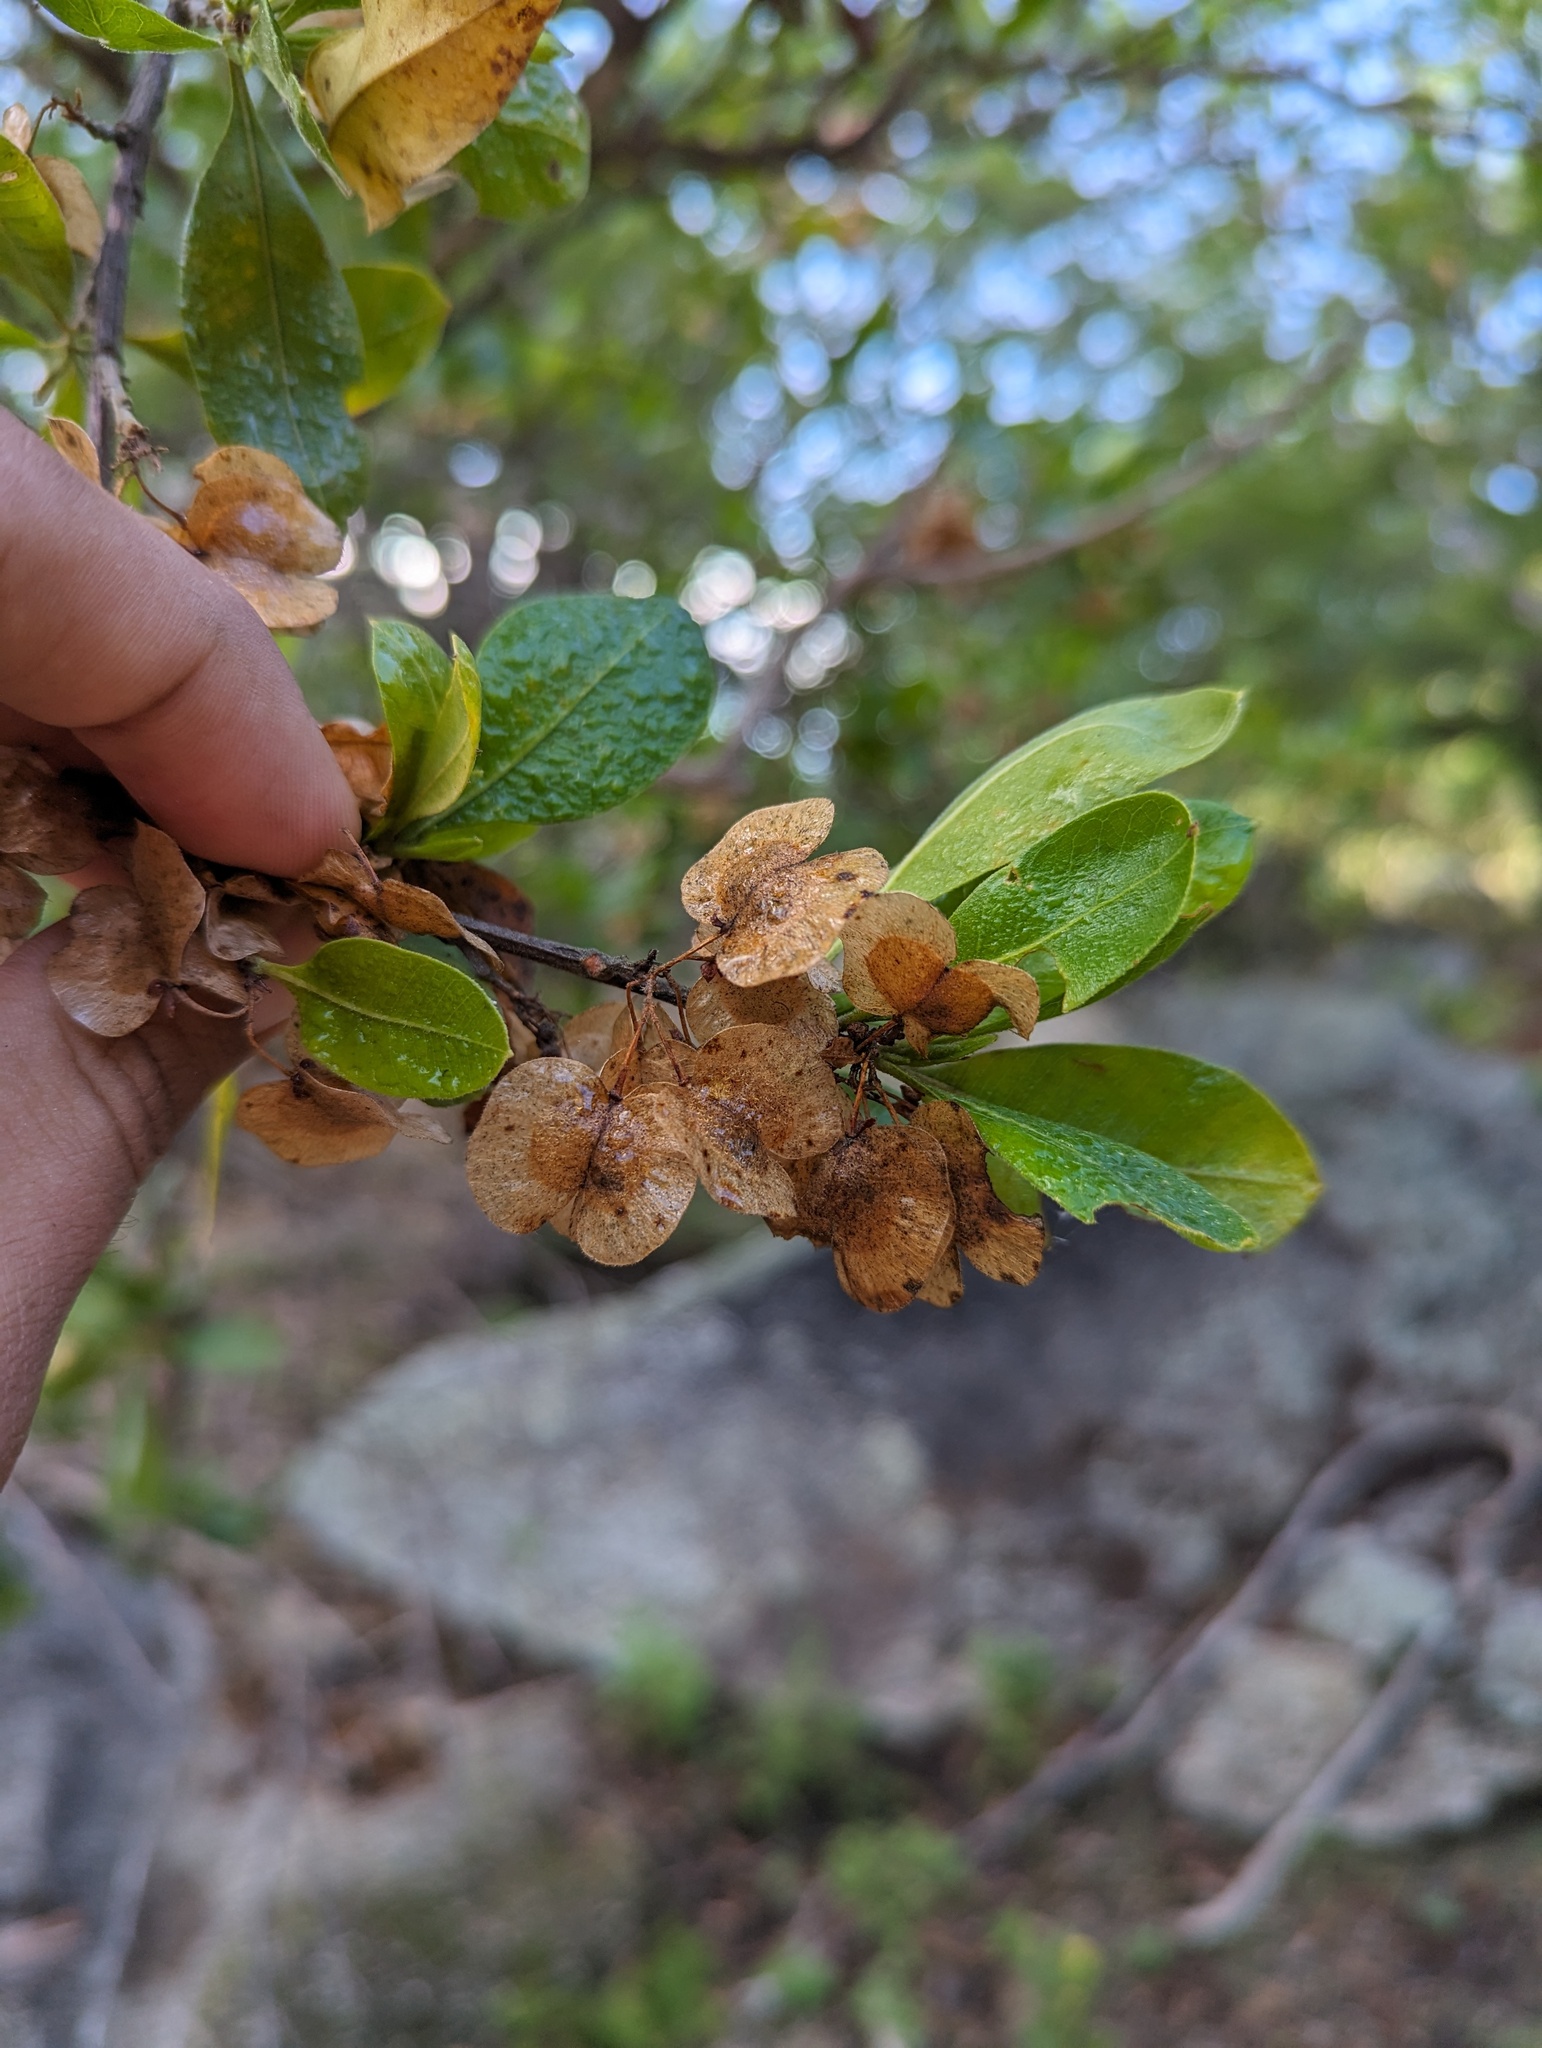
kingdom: Plantae
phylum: Tracheophyta
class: Magnoliopsida
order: Sapindales
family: Sapindaceae
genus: Dodonaea
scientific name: Dodonaea viscosa
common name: Hopbush
